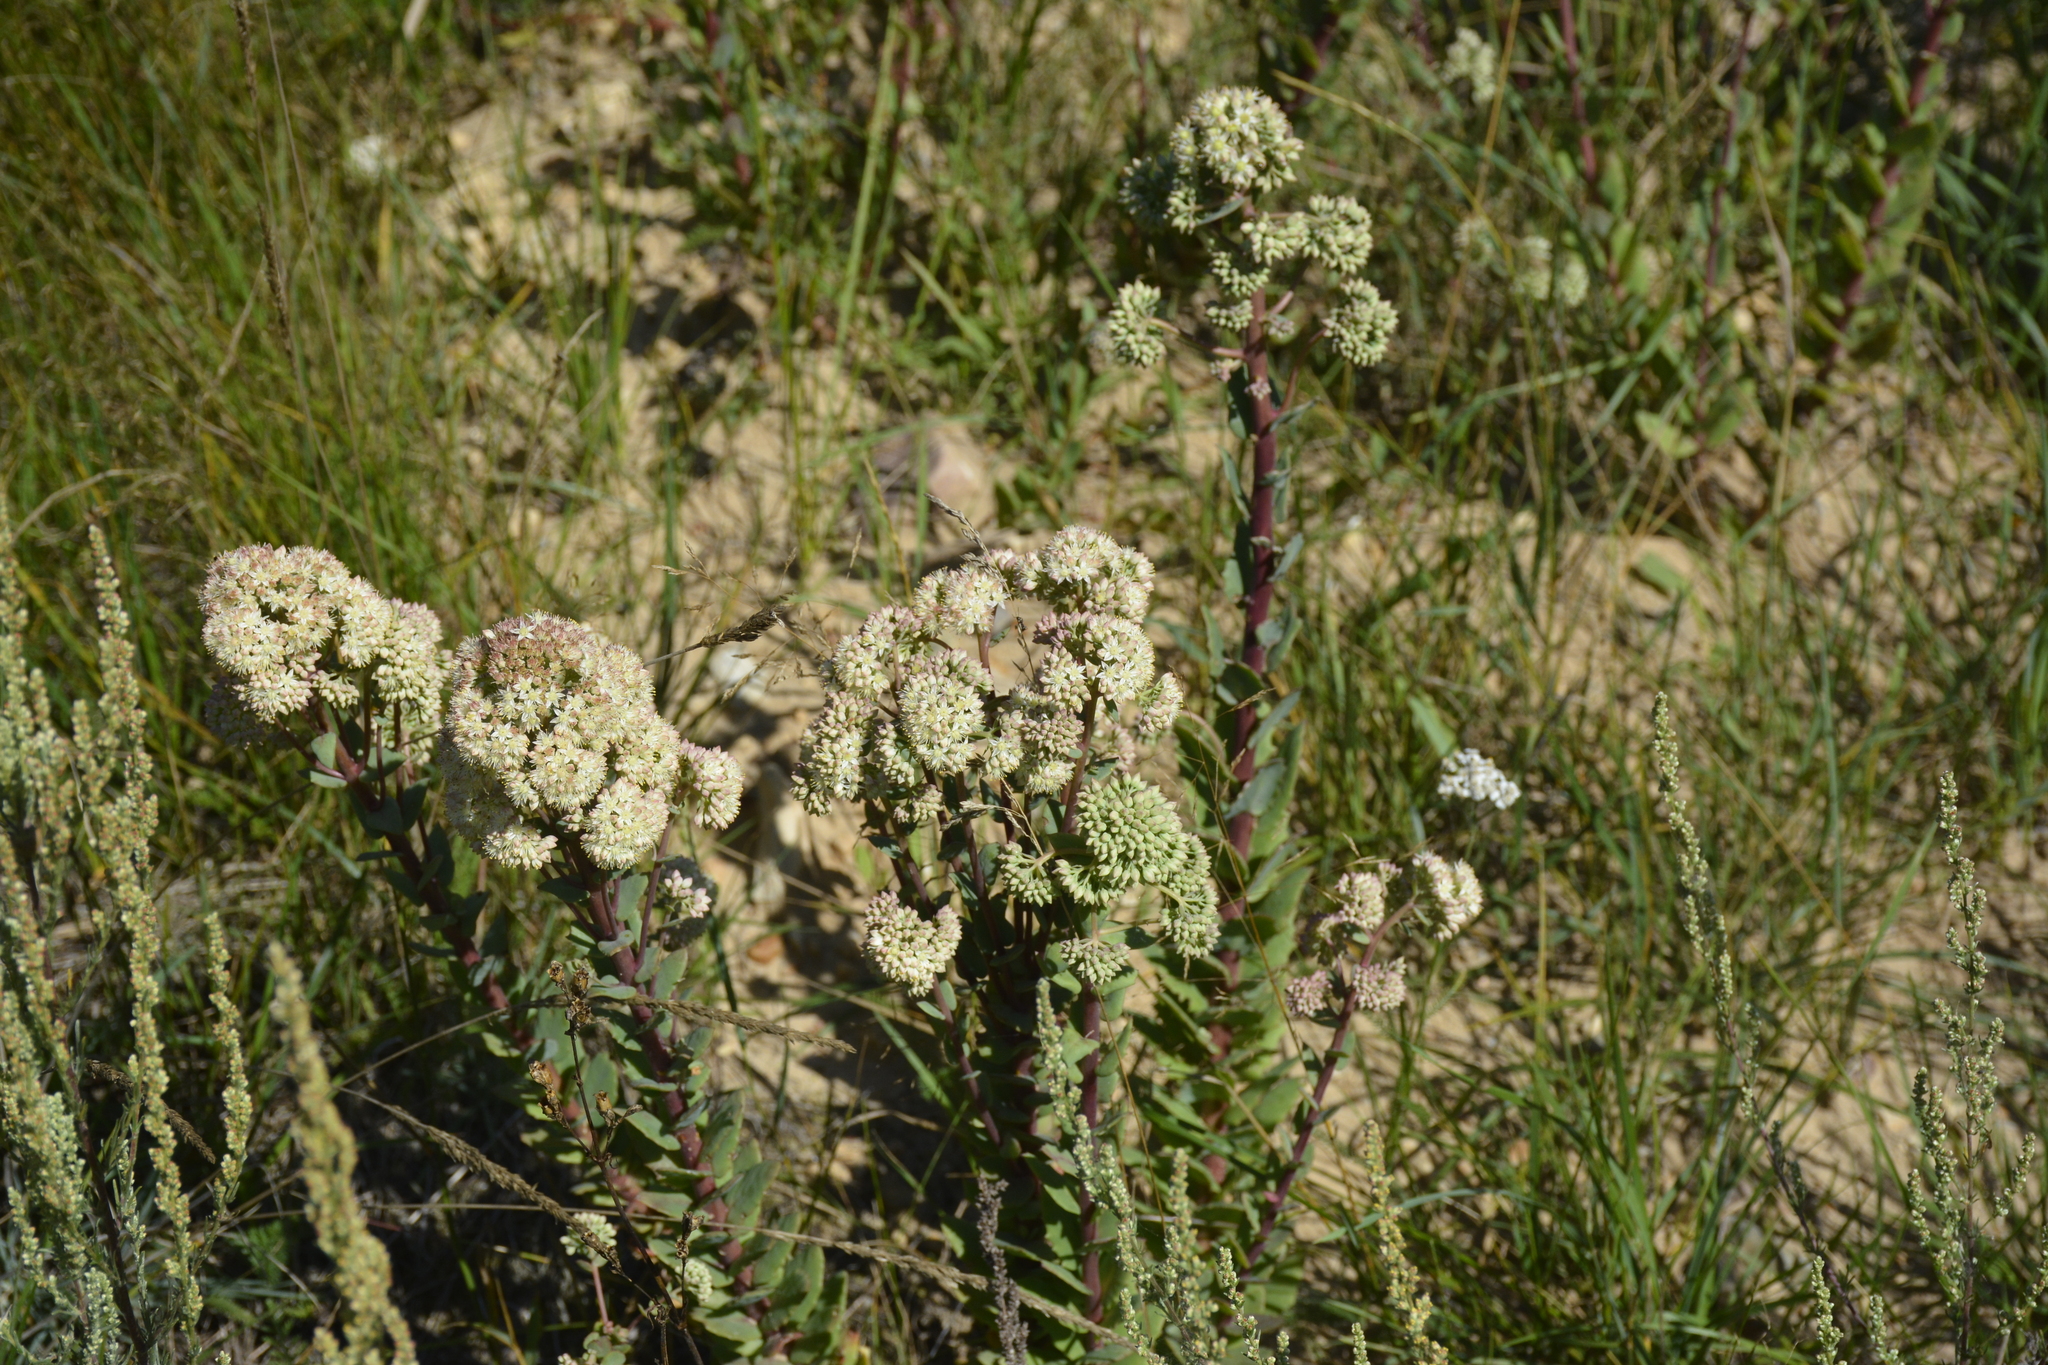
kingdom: Plantae
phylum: Tracheophyta
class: Magnoliopsida
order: Saxifragales
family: Crassulaceae
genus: Hylotelephium
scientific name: Hylotelephium maximum
